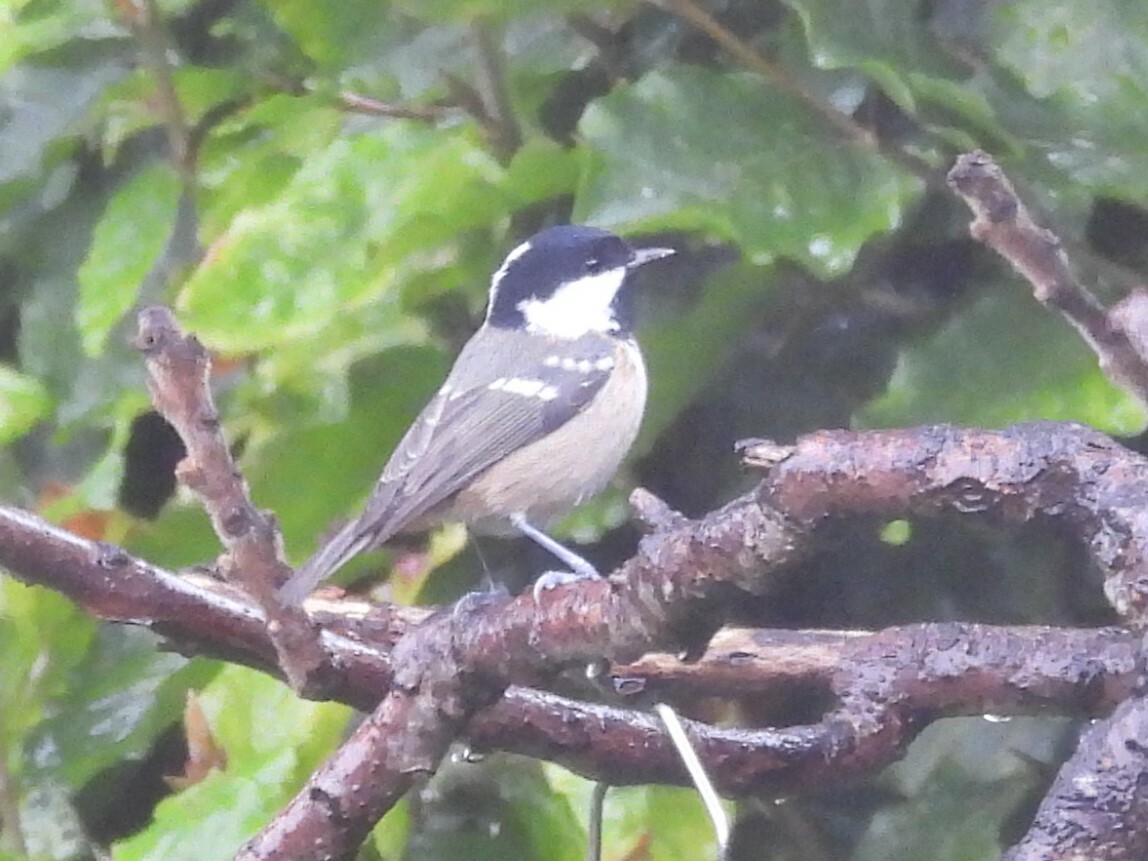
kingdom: Animalia
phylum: Chordata
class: Aves
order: Passeriformes
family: Paridae
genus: Periparus
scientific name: Periparus ater
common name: Coal tit
